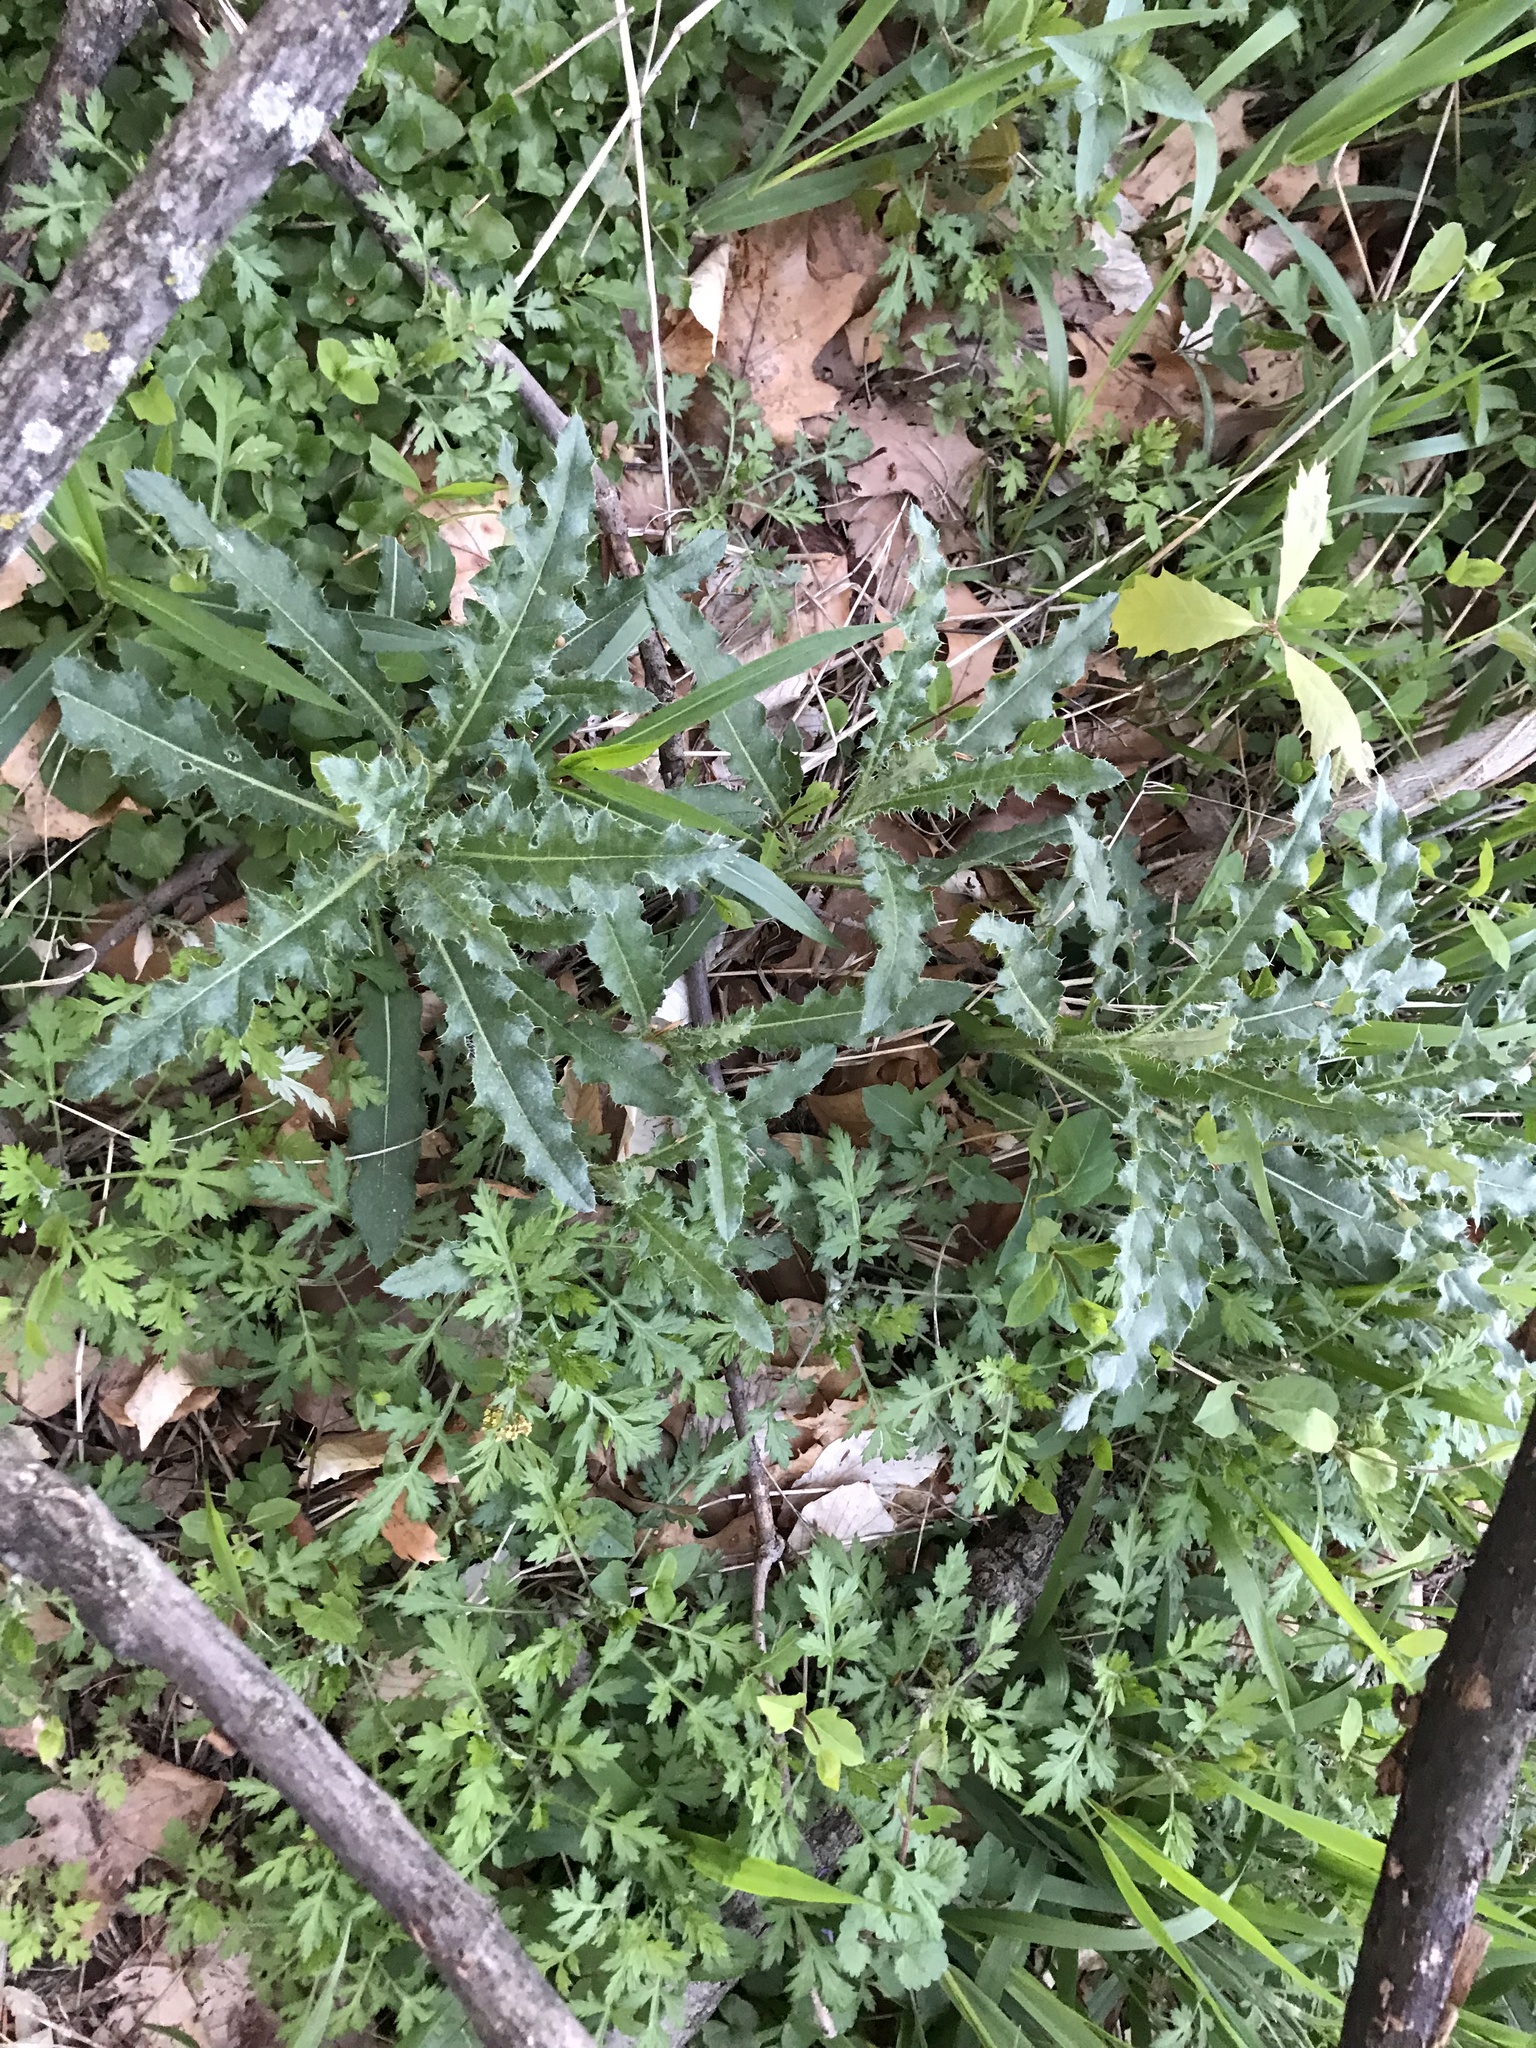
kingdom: Plantae
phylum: Tracheophyta
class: Magnoliopsida
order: Asterales
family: Asteraceae
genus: Cirsium
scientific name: Cirsium arvense
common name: Creeping thistle
